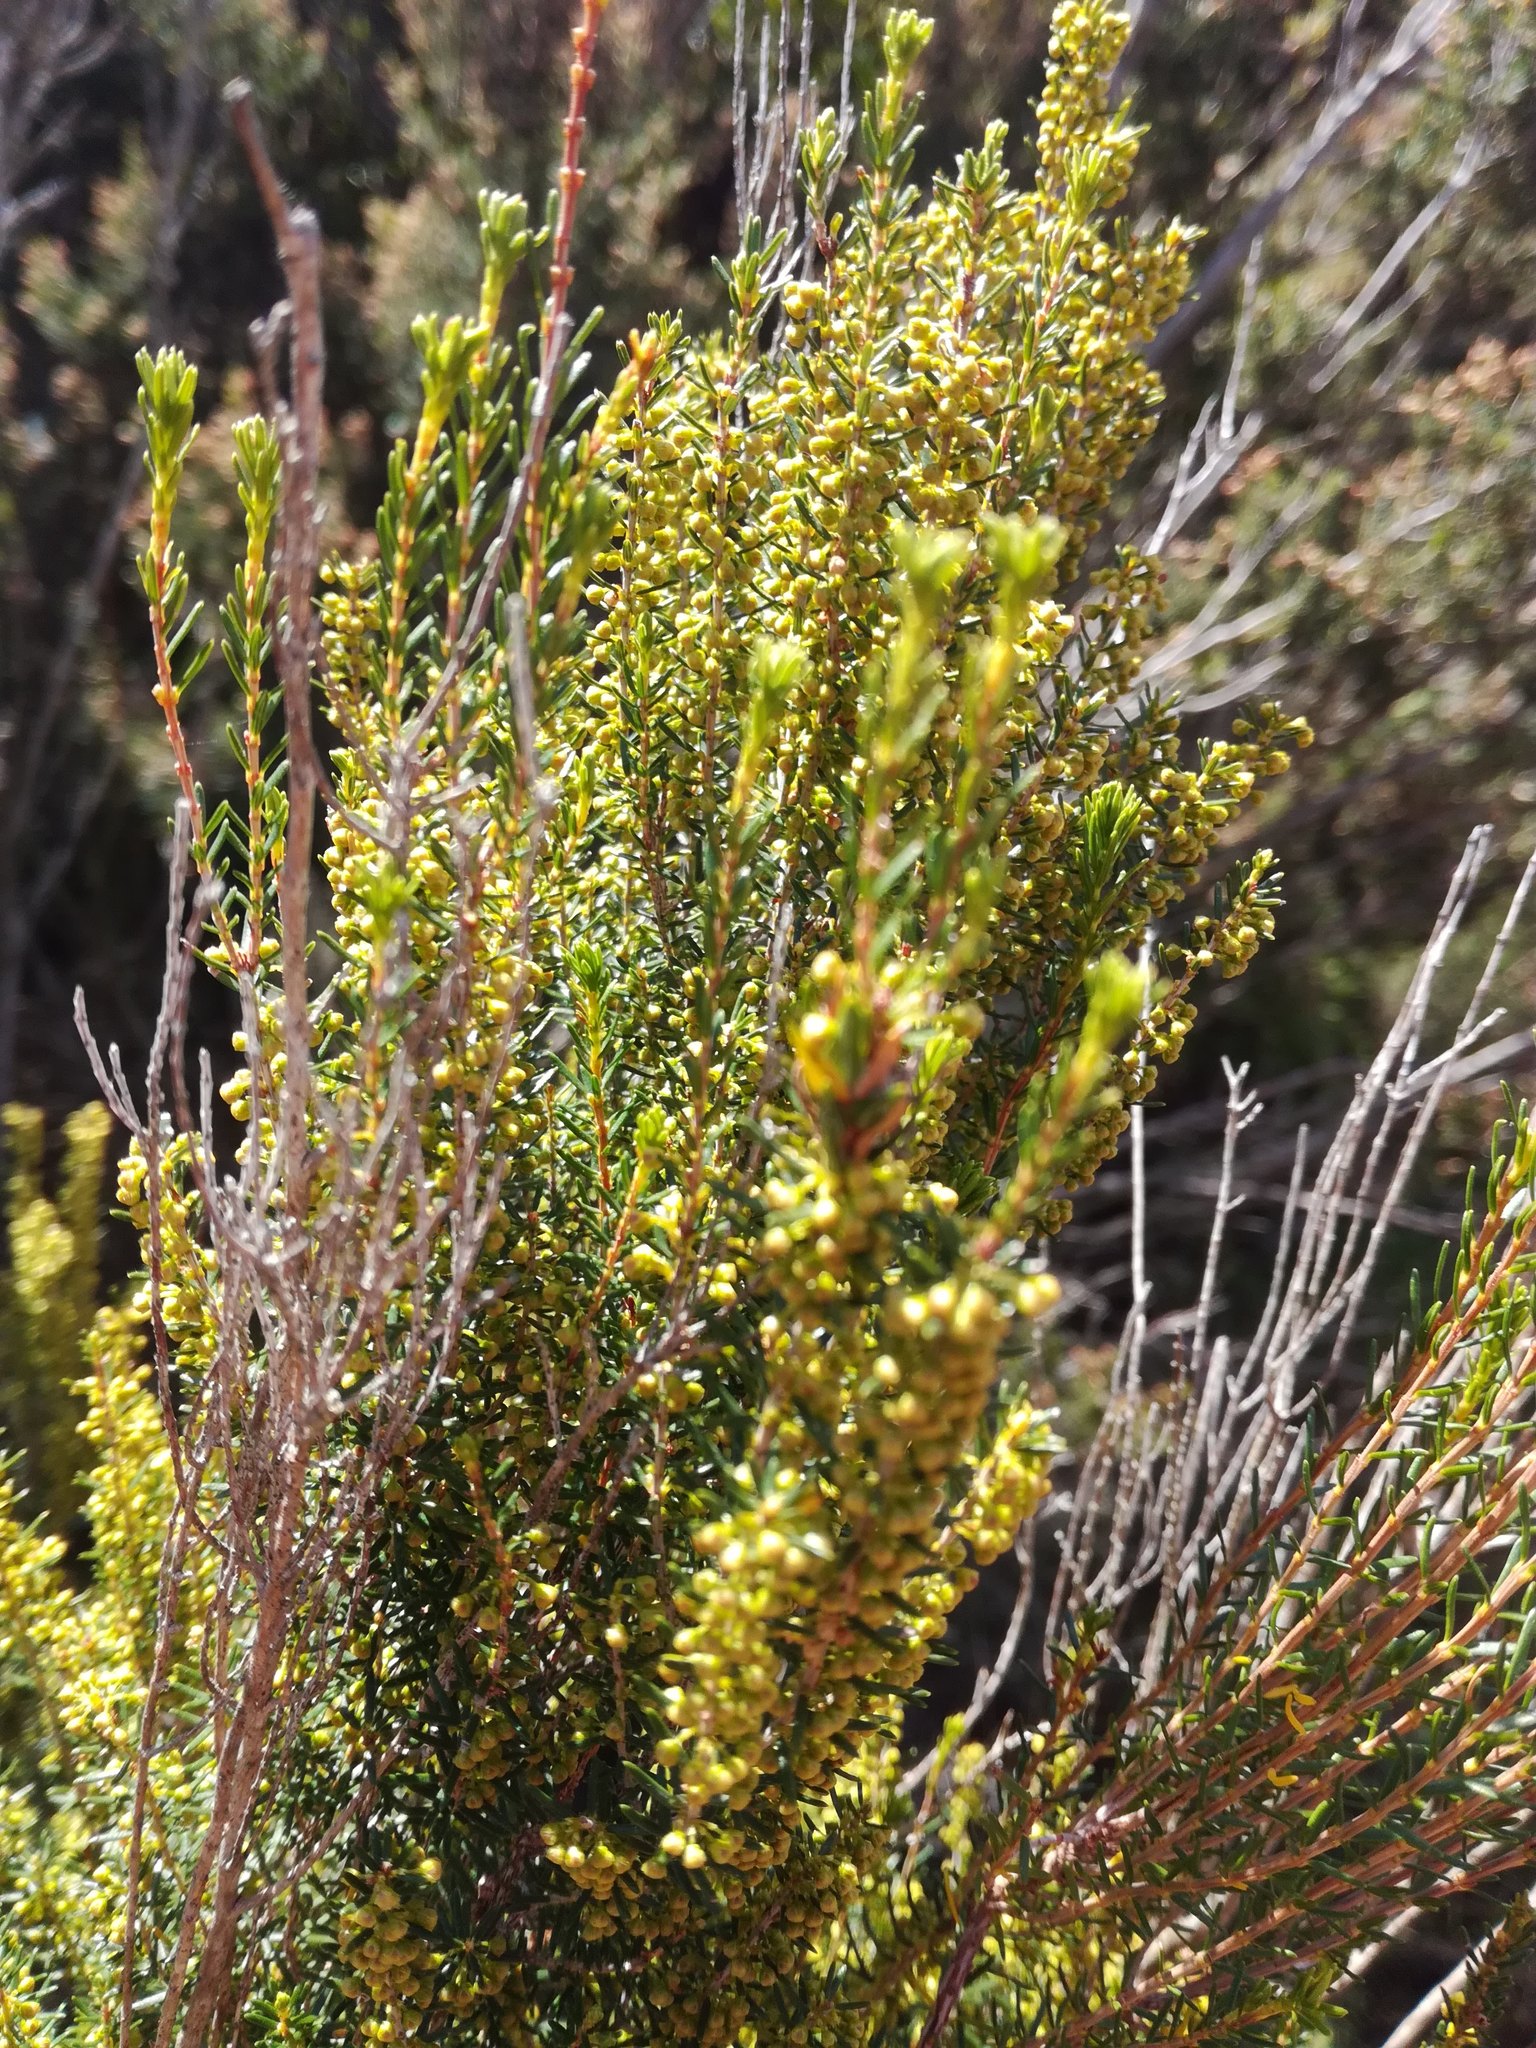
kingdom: Plantae
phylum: Tracheophyta
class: Magnoliopsida
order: Ericales
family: Ericaceae
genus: Erica
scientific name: Erica scoparia
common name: Green heather
